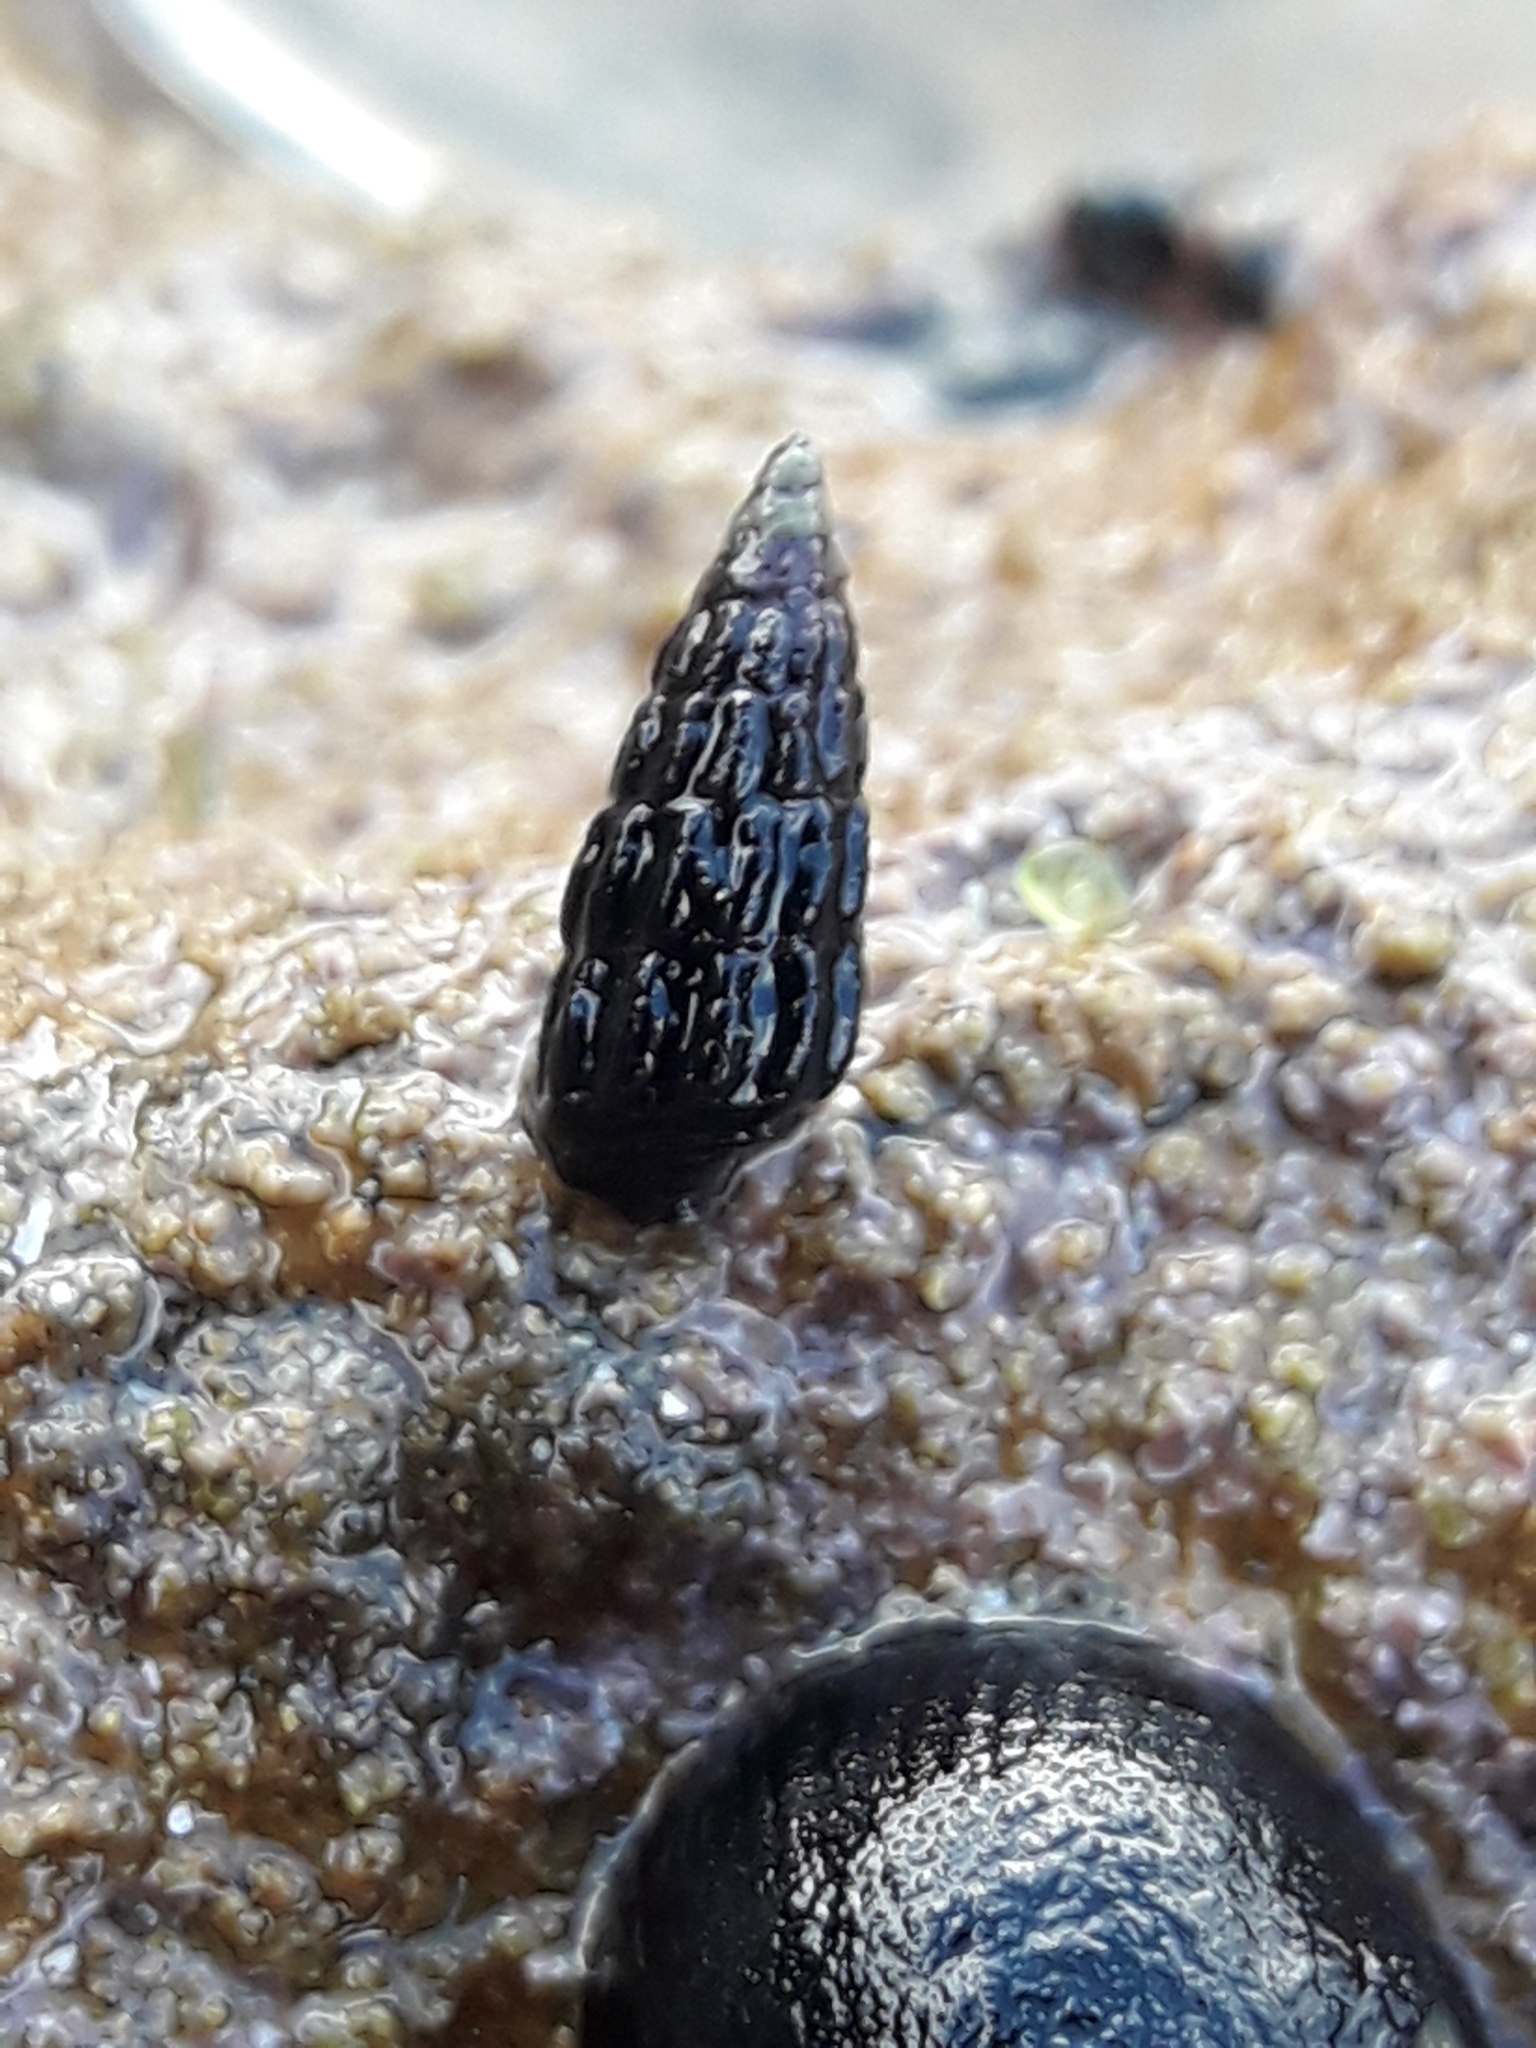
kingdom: Animalia
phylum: Mollusca
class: Gastropoda
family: Batillariidae
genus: Zeacumantus
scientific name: Zeacumantus subcarinatus
